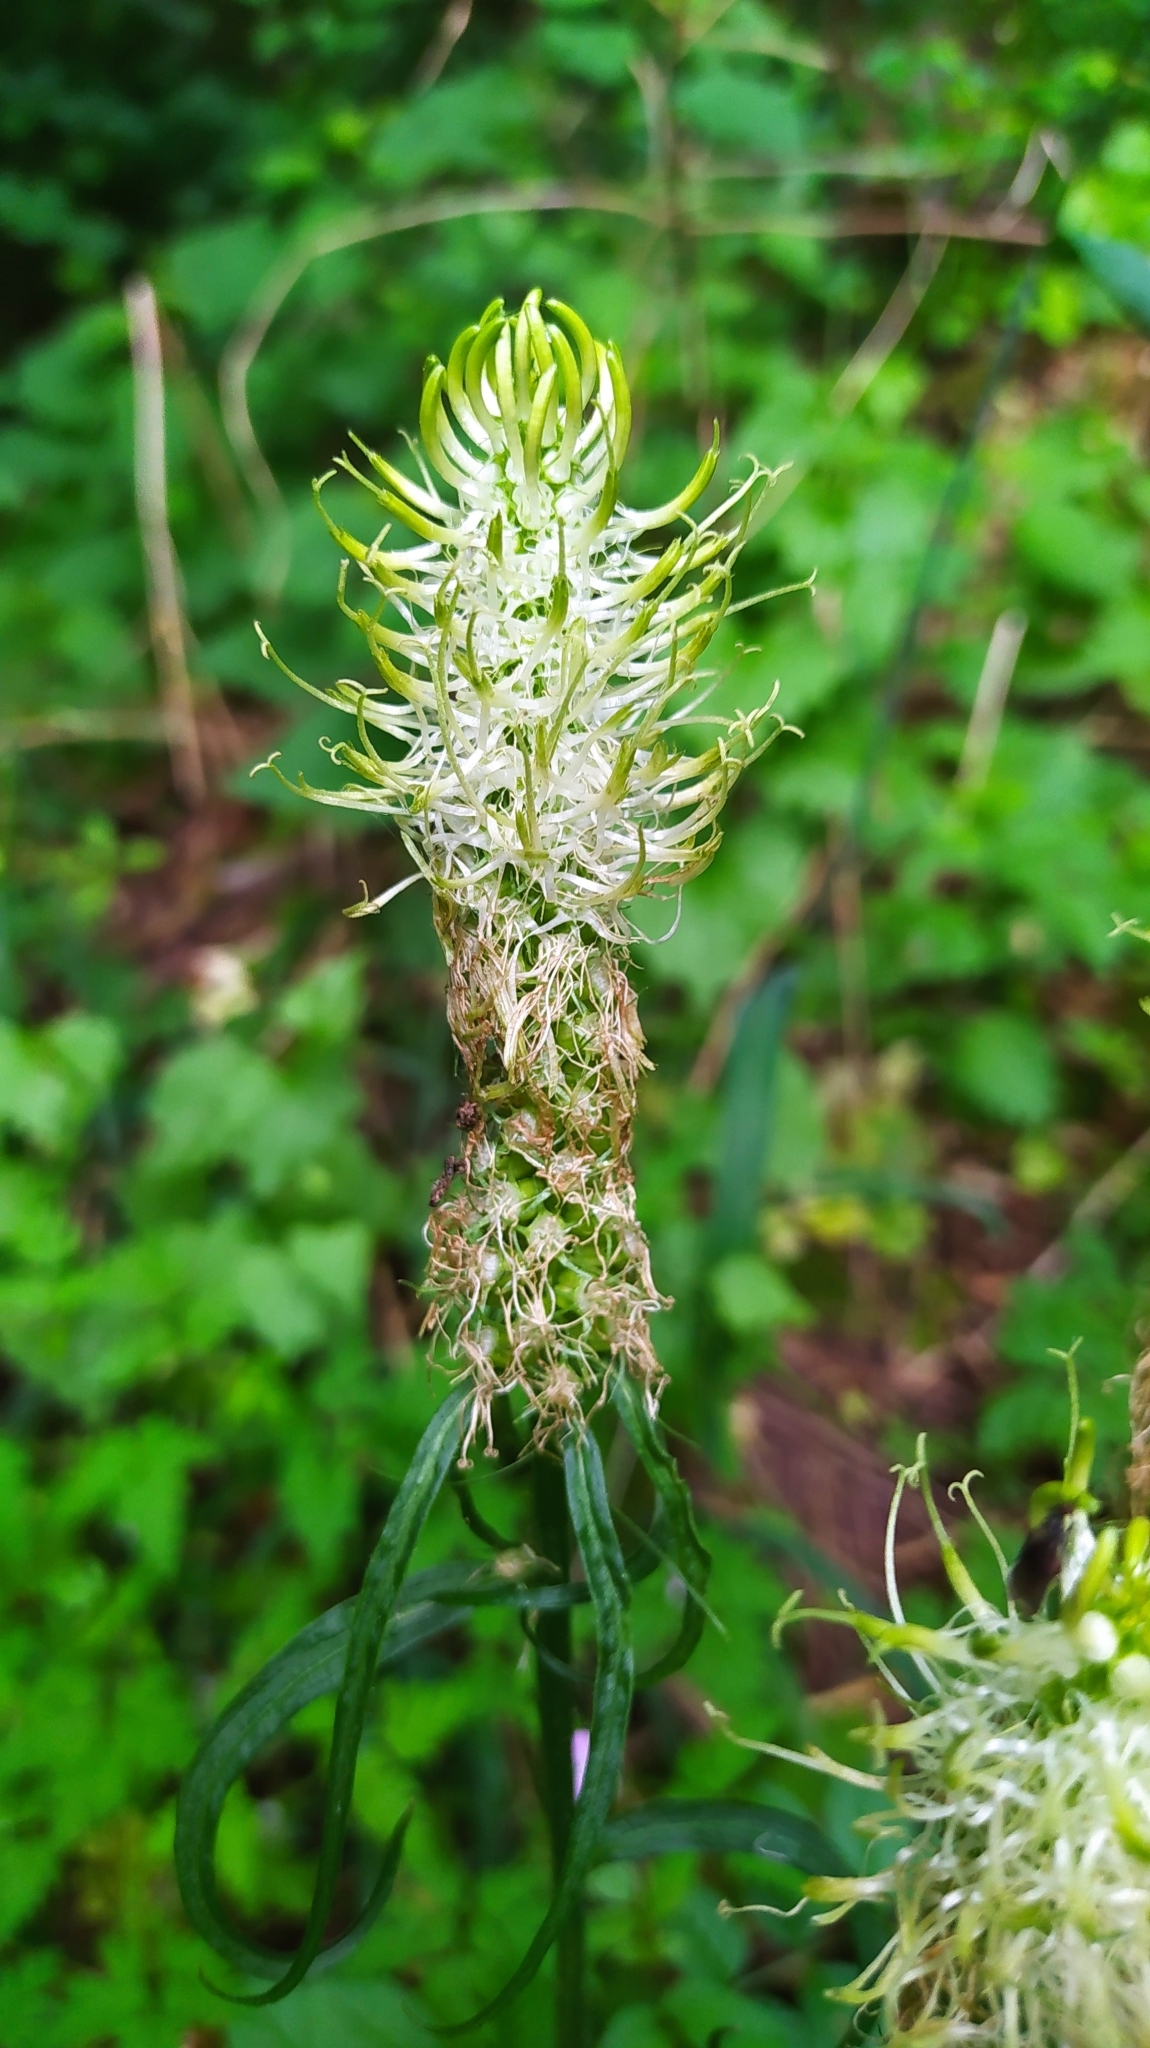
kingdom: Plantae
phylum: Tracheophyta
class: Magnoliopsida
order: Asterales
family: Campanulaceae
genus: Phyteuma
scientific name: Phyteuma spicatum
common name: Spiked rampion
